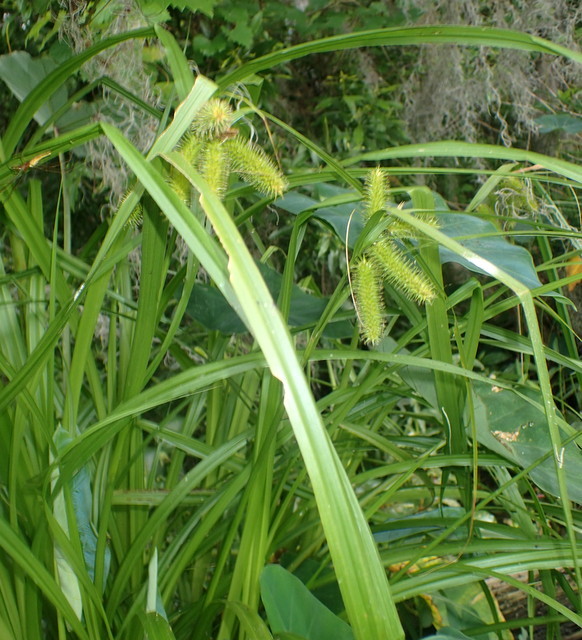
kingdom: Plantae
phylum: Tracheophyta
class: Liliopsida
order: Poales
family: Cyperaceae
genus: Carex
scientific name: Carex comosa
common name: Bristly sedge
